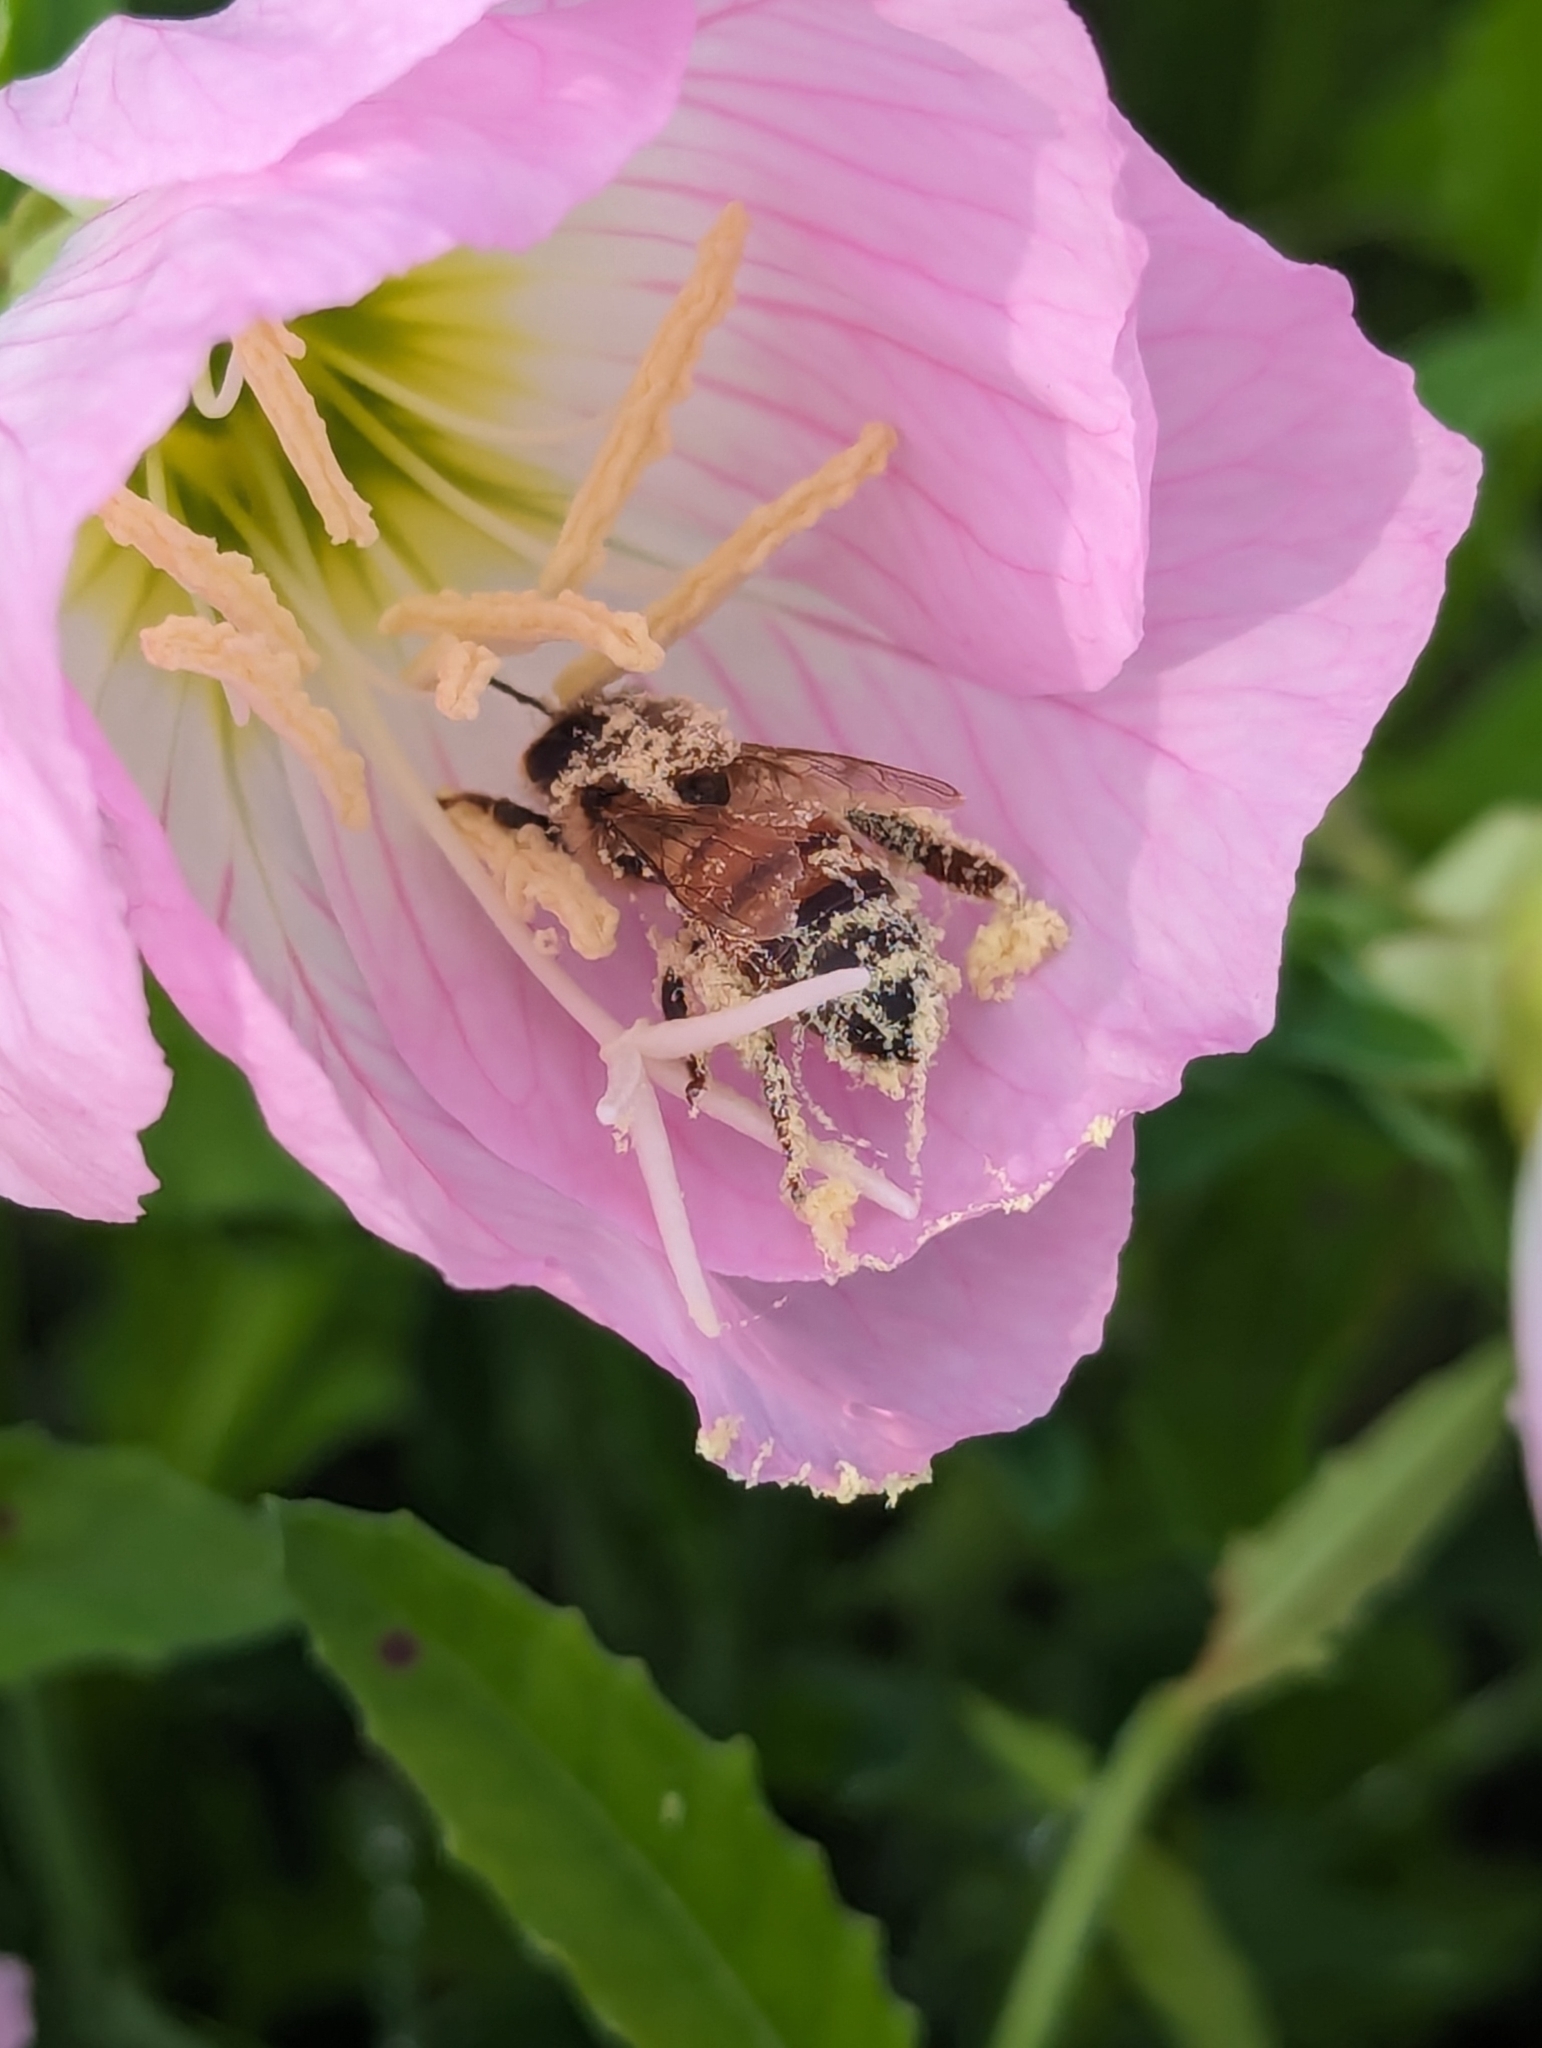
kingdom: Plantae
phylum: Tracheophyta
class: Magnoliopsida
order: Myrtales
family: Onagraceae
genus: Oenothera
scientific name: Oenothera speciosa
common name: White evening-primrose
